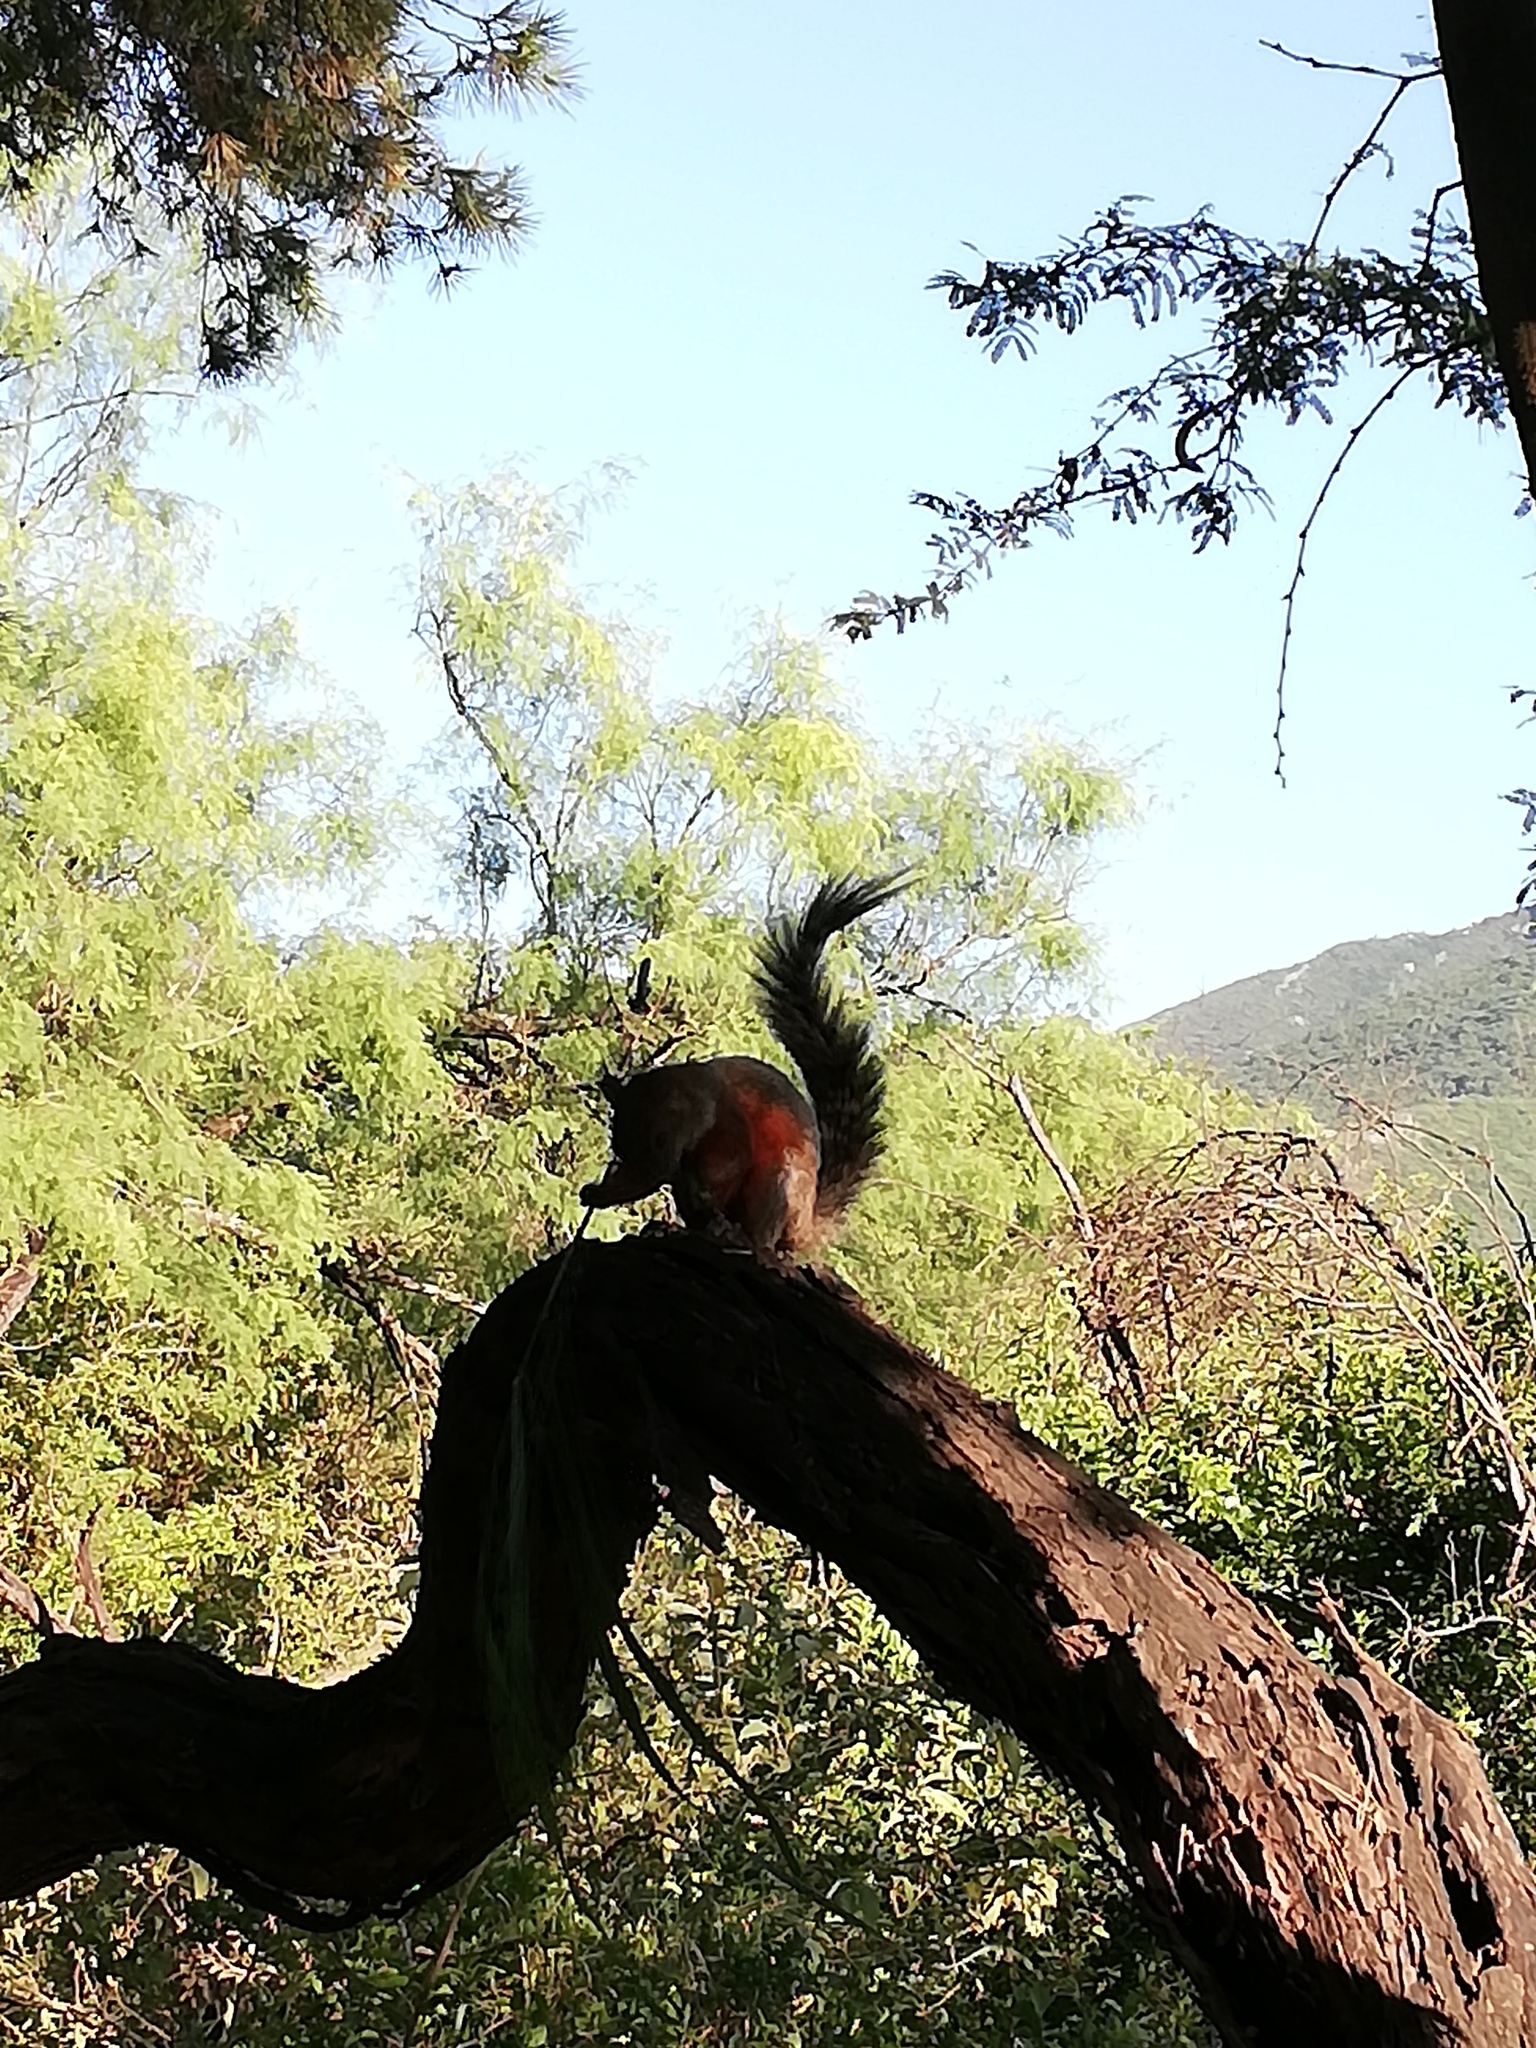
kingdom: Animalia
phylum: Chordata
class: Mammalia
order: Rodentia
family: Sciuridae
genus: Sciurus
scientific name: Sciurus aureogaster
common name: Red-bellied squirrel
